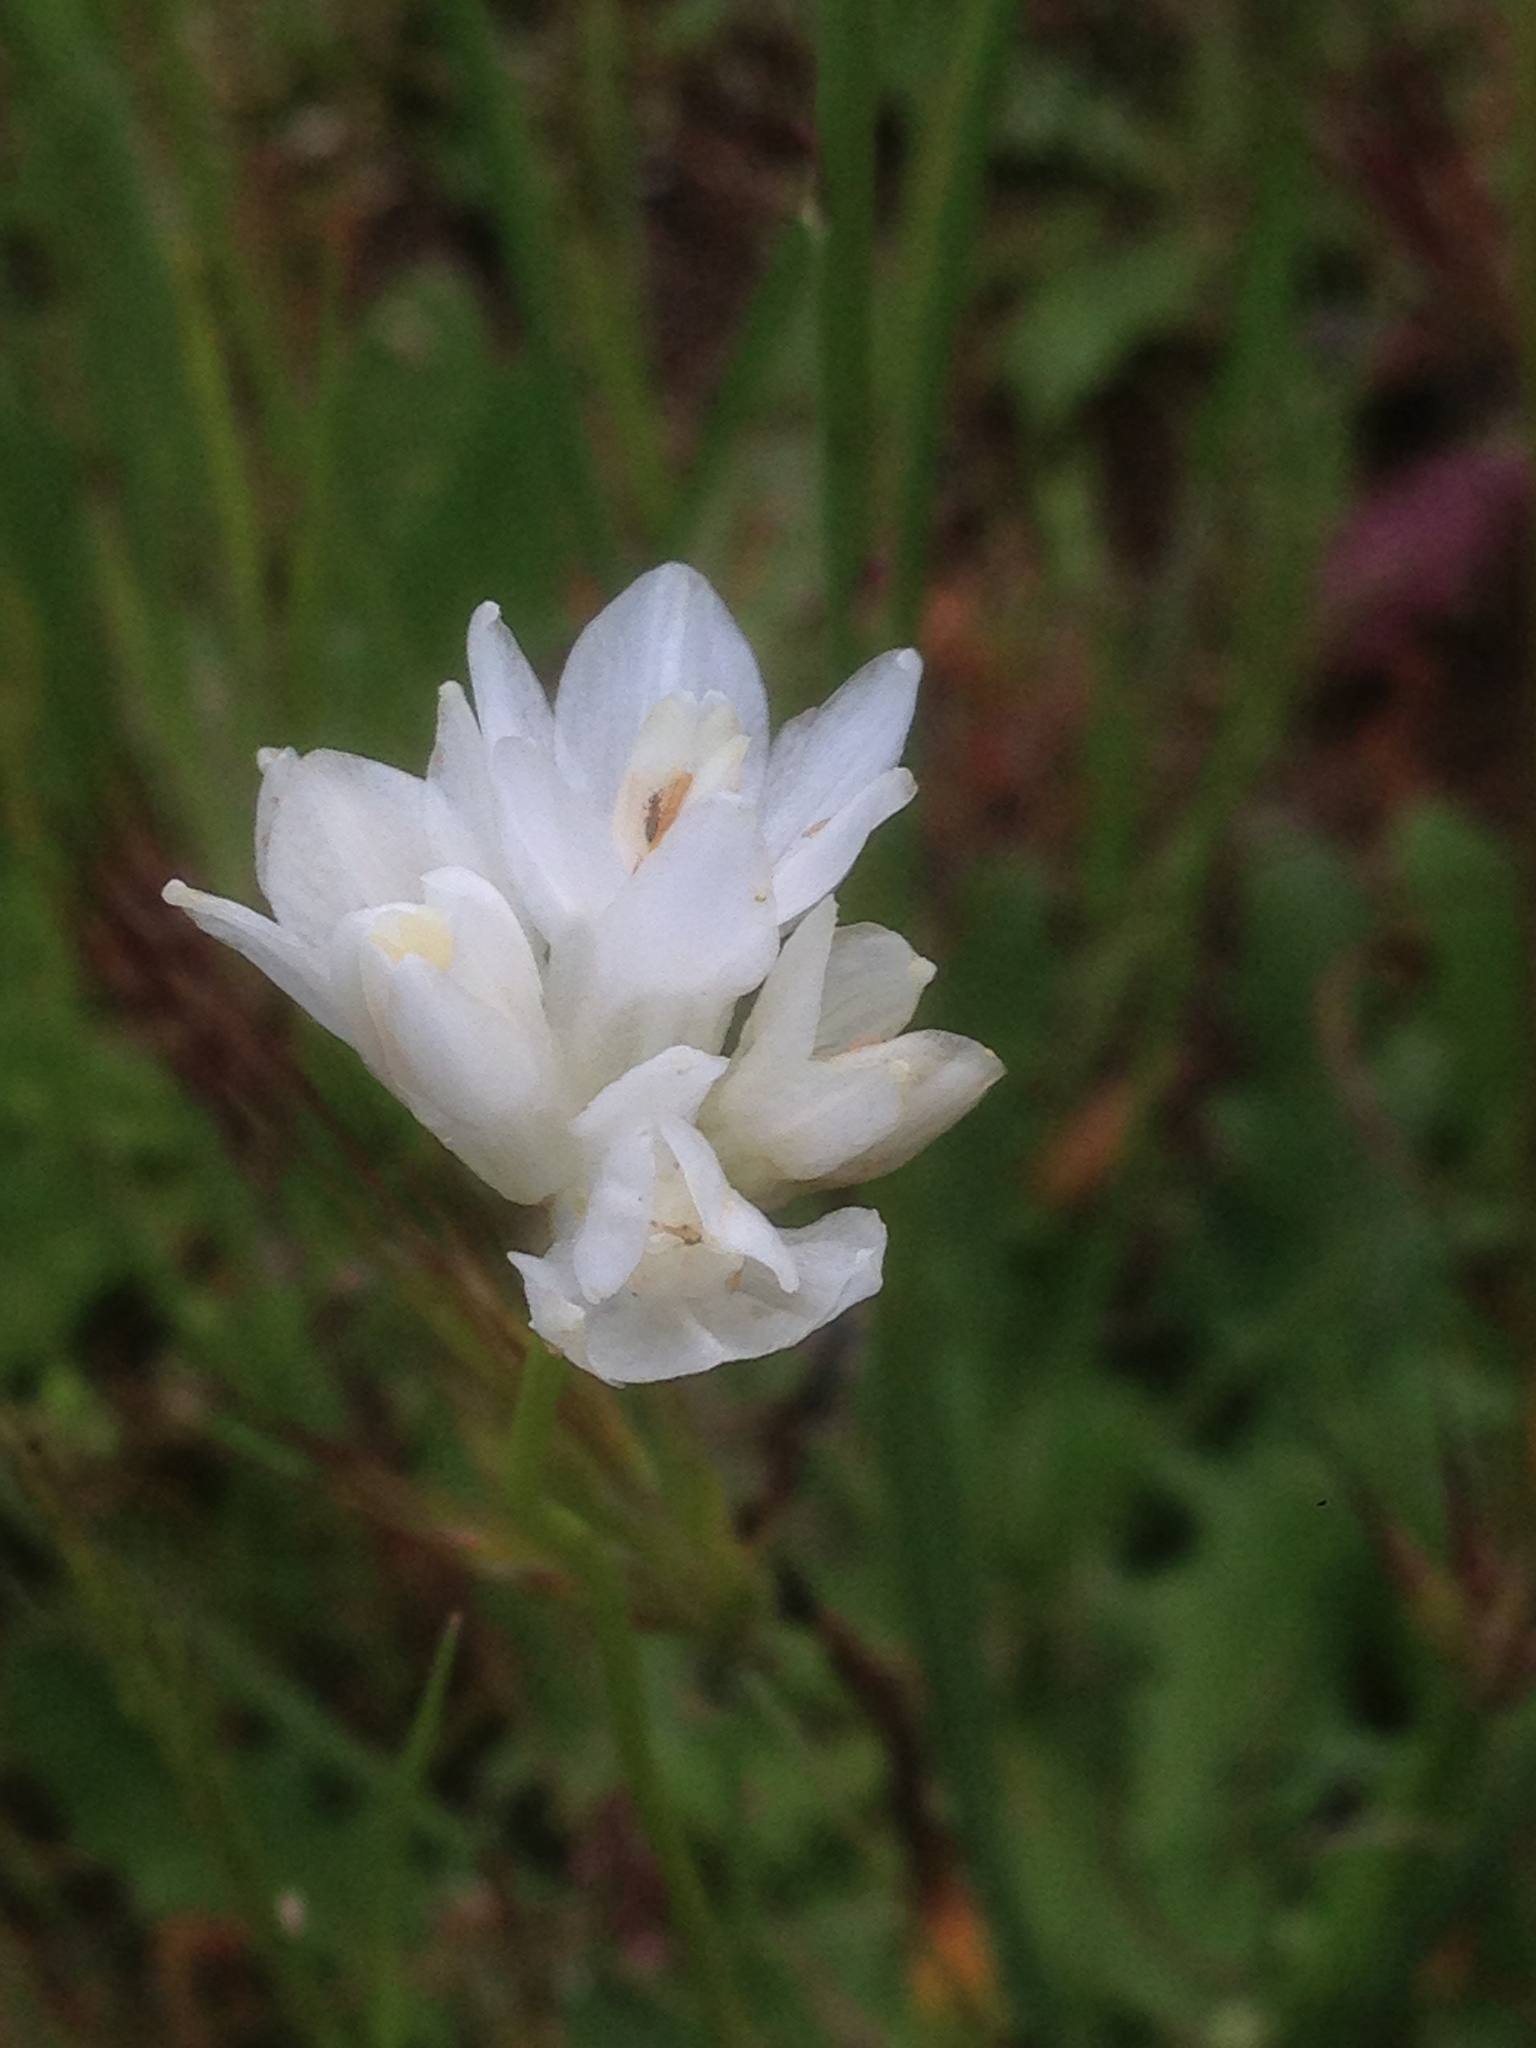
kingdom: Plantae
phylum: Tracheophyta
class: Liliopsida
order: Asparagales
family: Asparagaceae
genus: Dipterostemon
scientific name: Dipterostemon capitatus
